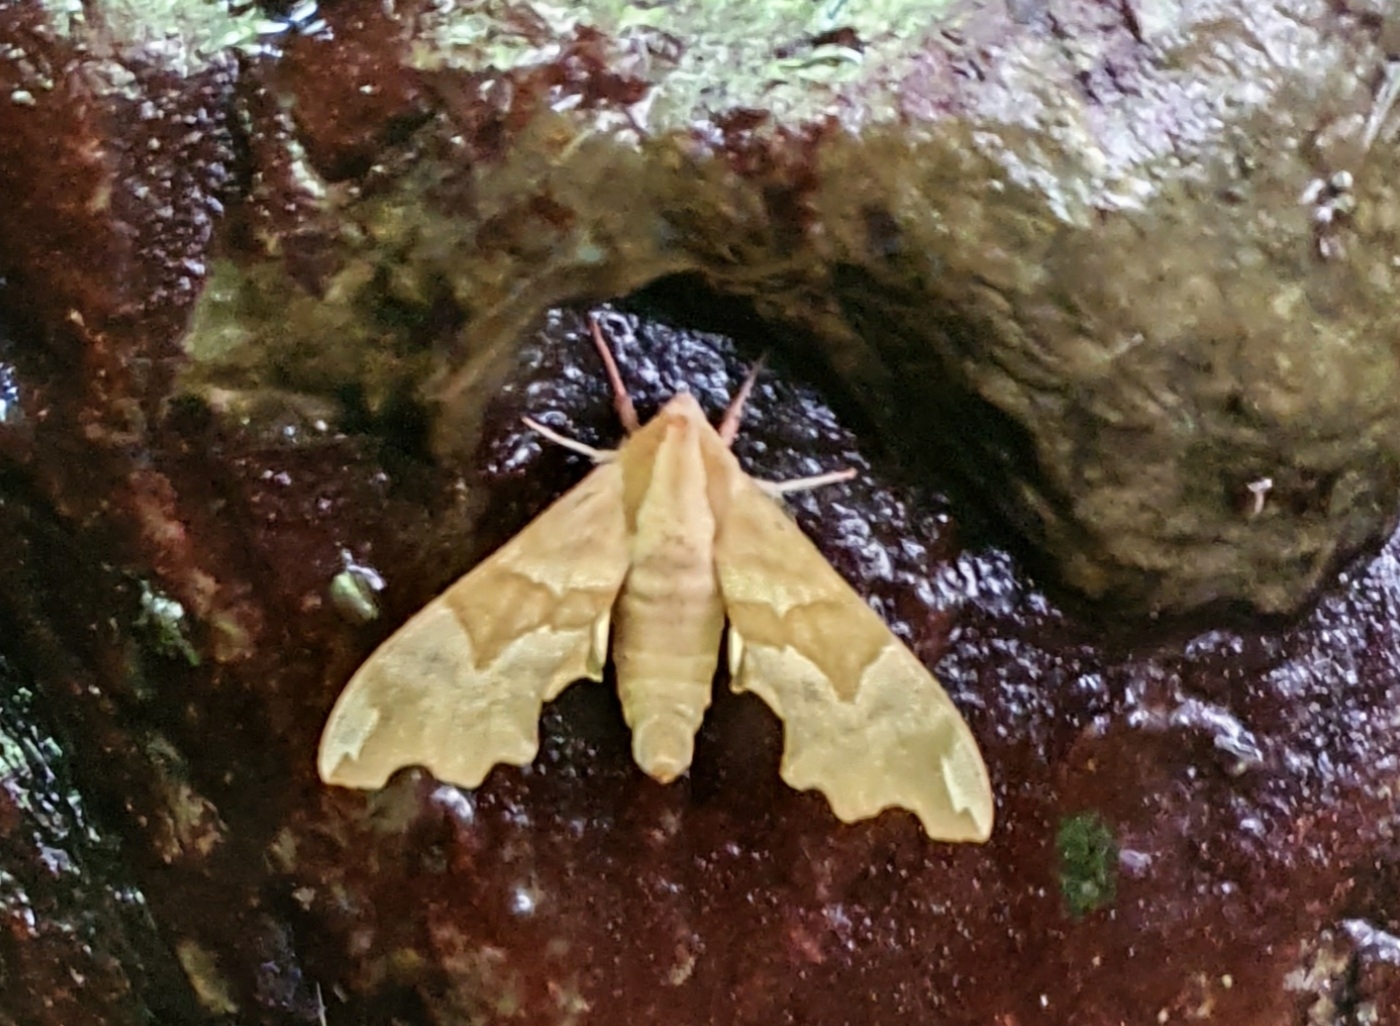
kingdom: Animalia
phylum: Arthropoda
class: Insecta
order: Lepidoptera
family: Sphingidae
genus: Mimas
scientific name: Mimas tiliae
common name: Lime hawk-moth
